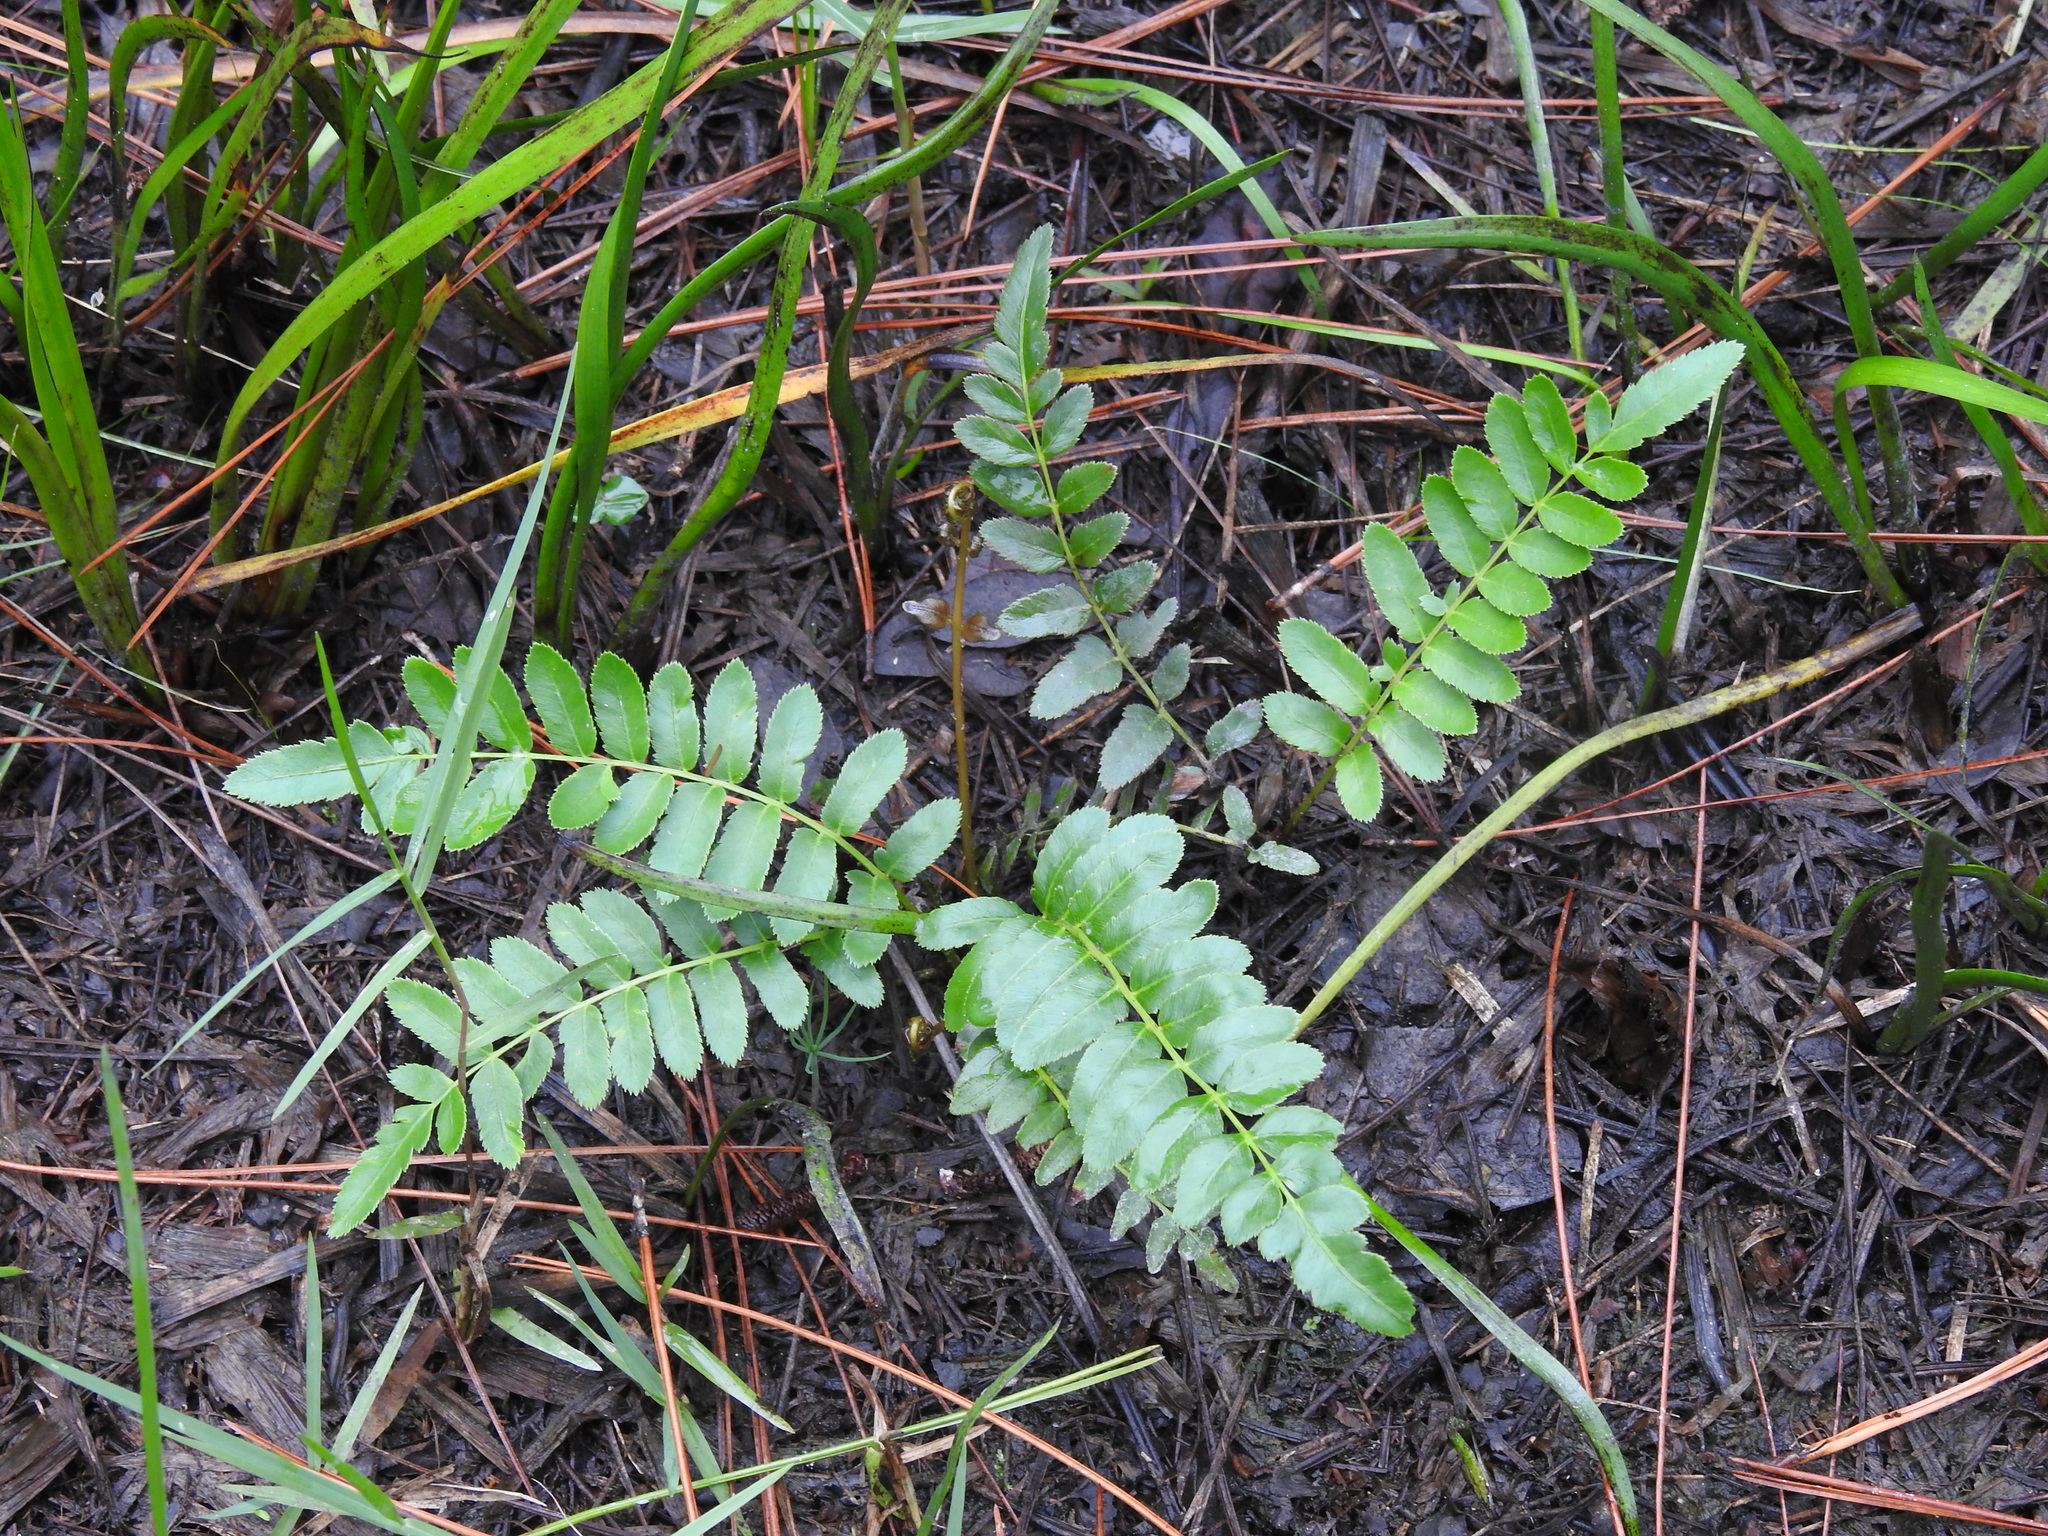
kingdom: Plantae
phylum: Tracheophyta
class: Polypodiopsida
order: Polypodiales
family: Blechnaceae
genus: Telmatoblechnum
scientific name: Telmatoblechnum serrulatum
